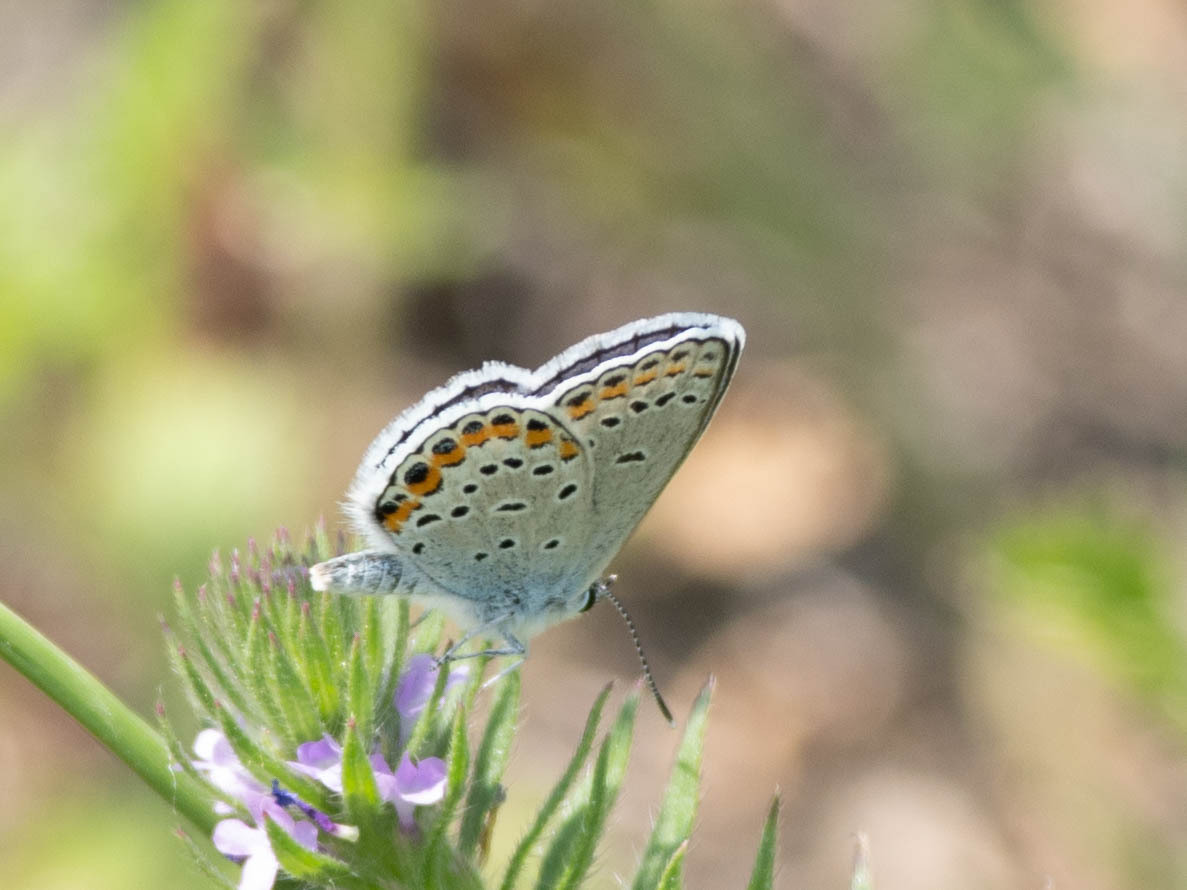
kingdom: Animalia
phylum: Arthropoda
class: Insecta
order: Lepidoptera
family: Lycaenidae
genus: Lycaeides
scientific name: Lycaeides melissa
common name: Melissa blue
